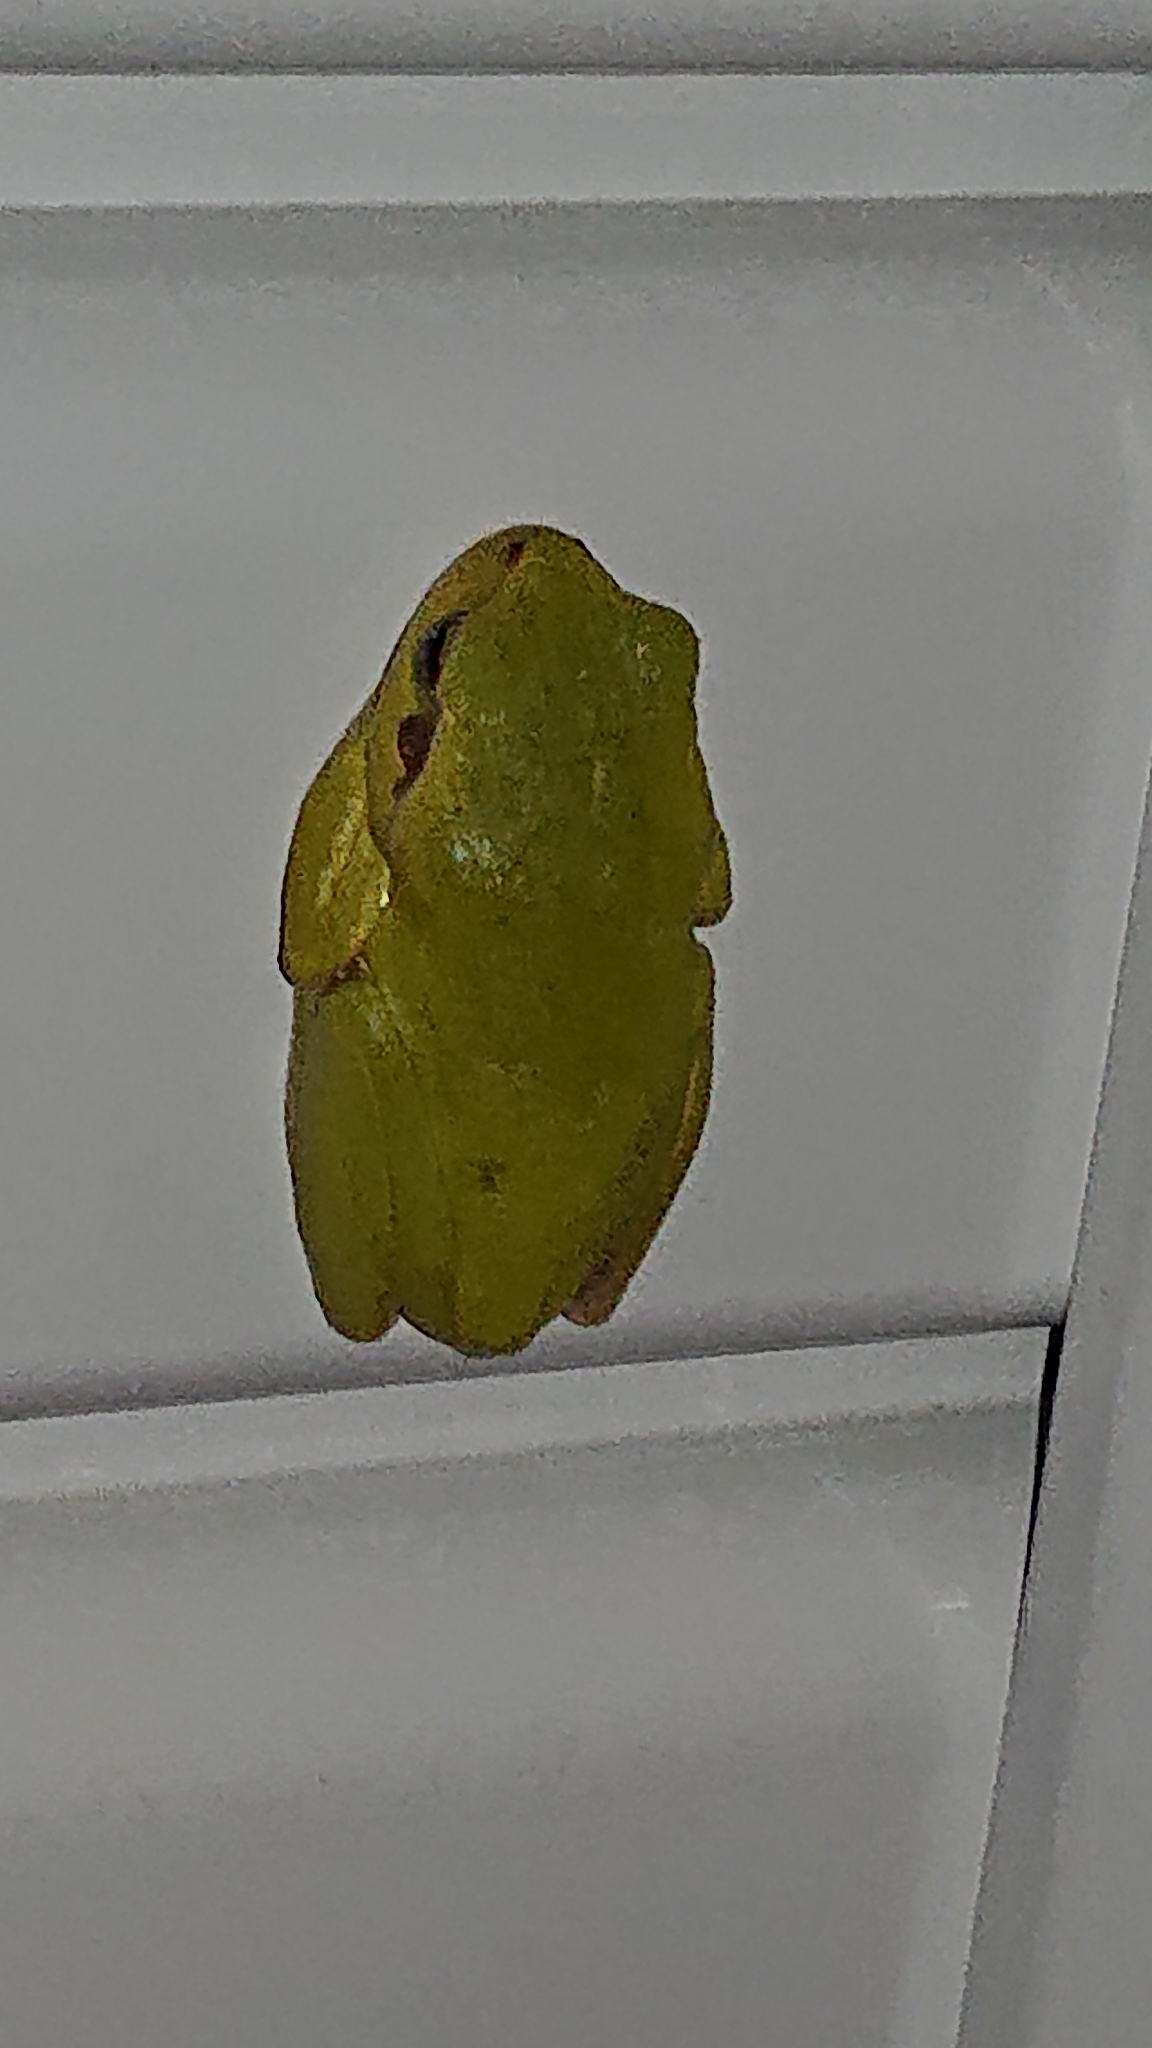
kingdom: Animalia
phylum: Chordata
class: Amphibia
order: Anura
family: Hylidae
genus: Hyla
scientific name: Hyla arborea
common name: Common tree frog
